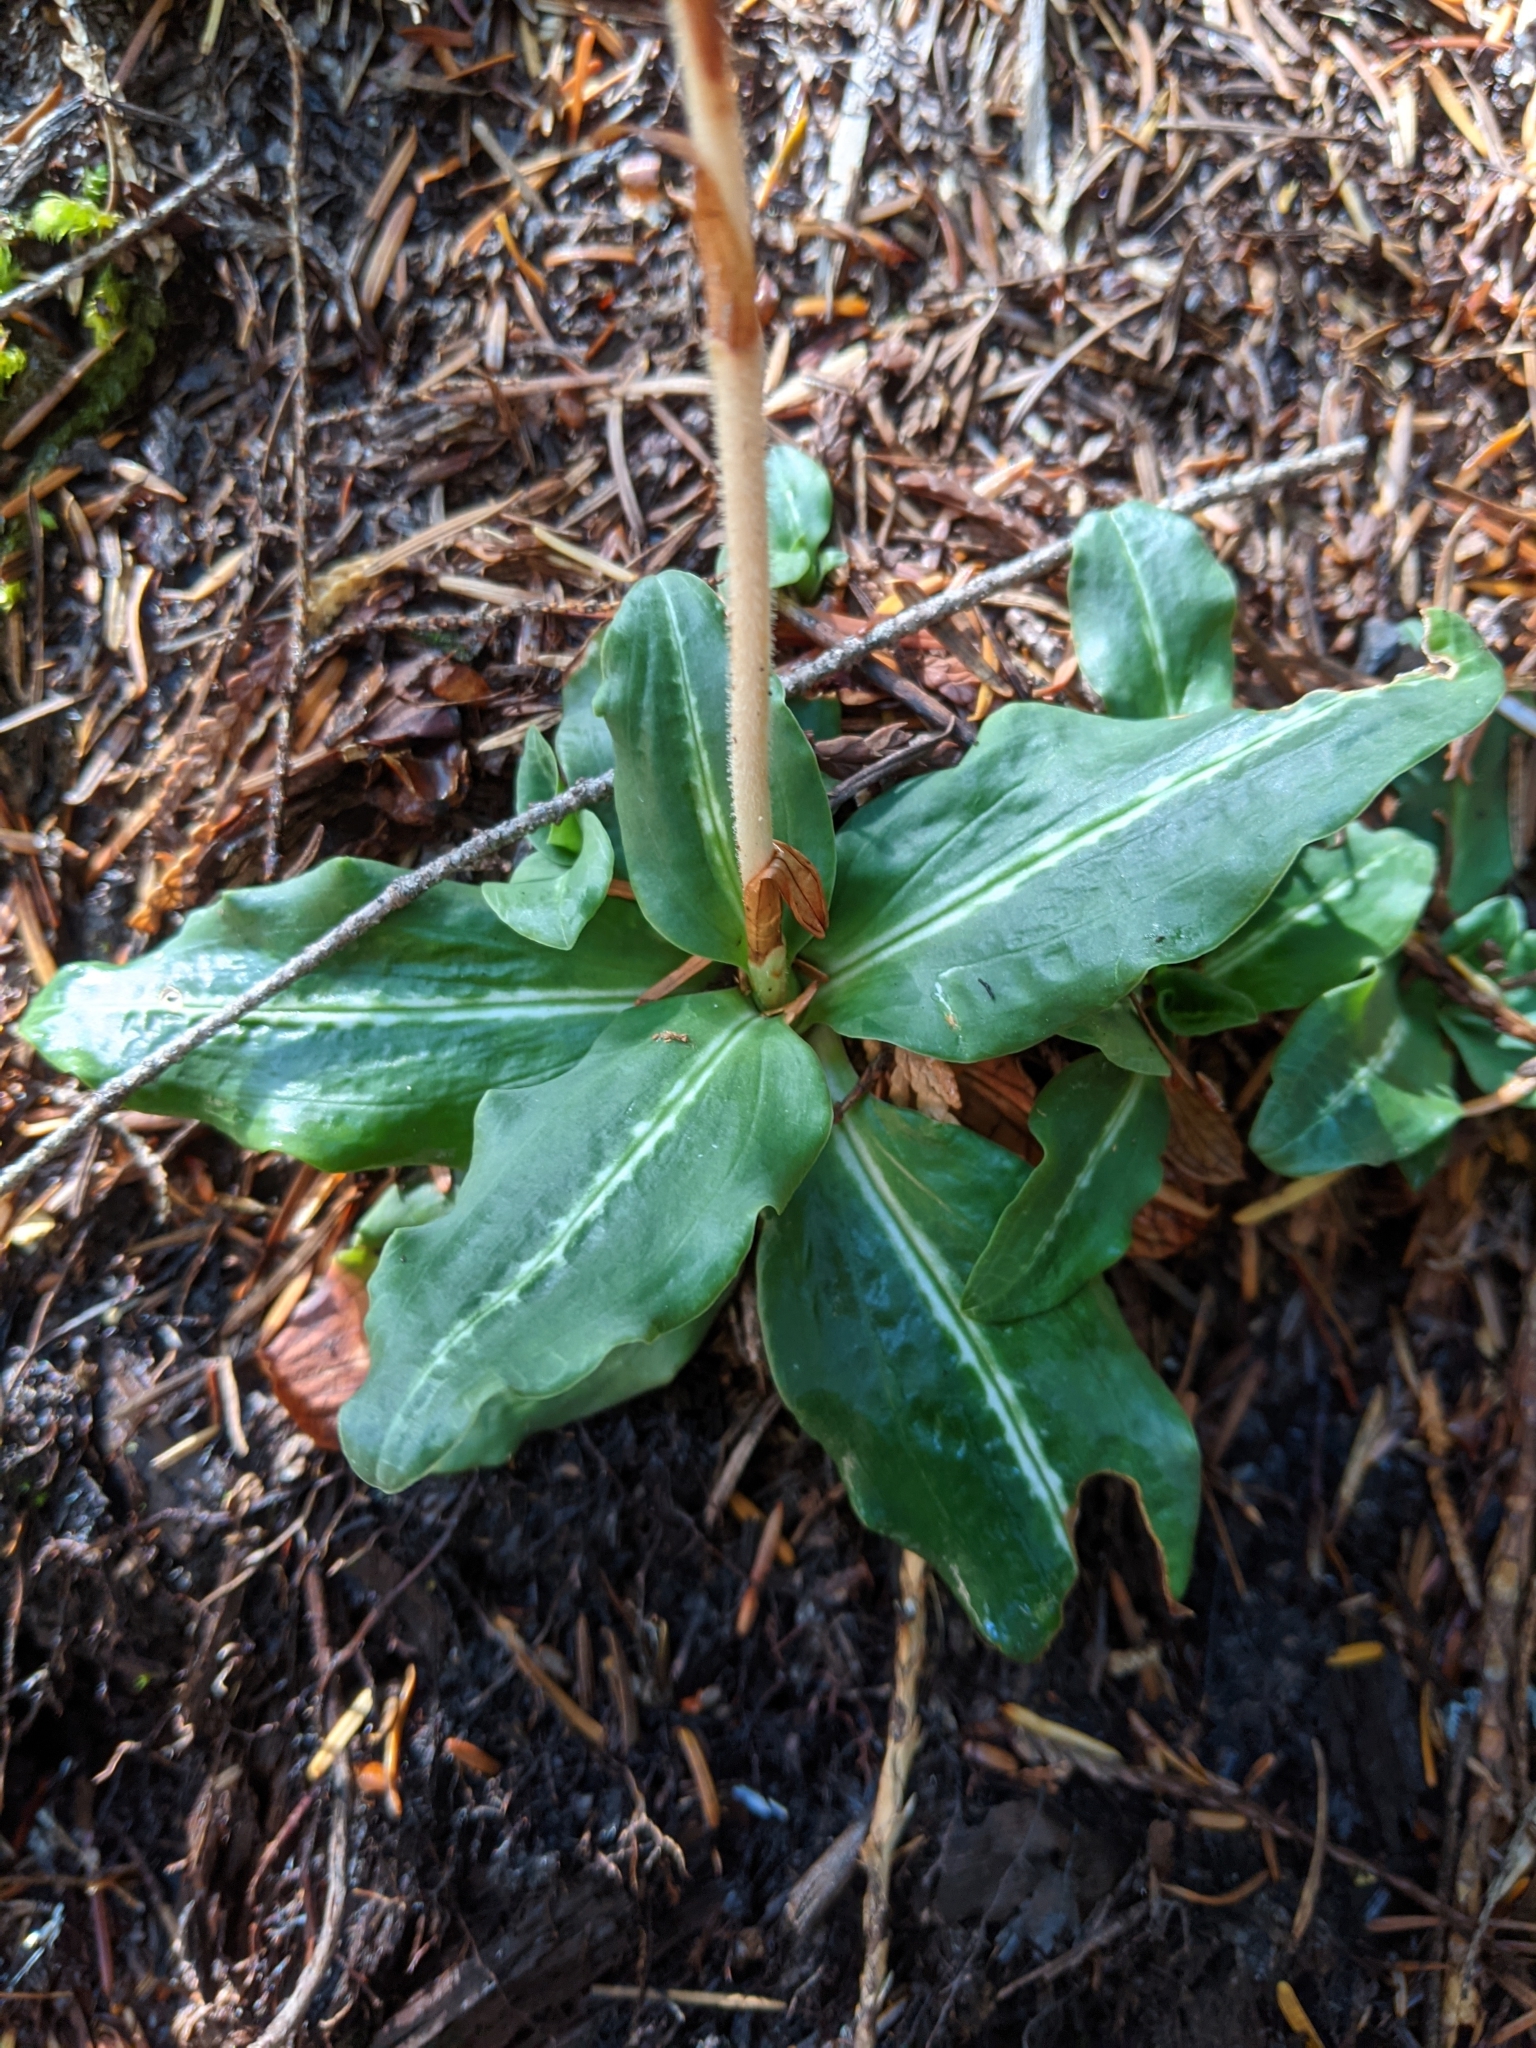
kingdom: Plantae
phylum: Tracheophyta
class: Liliopsida
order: Asparagales
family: Orchidaceae
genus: Goodyera
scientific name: Goodyera oblongifolia
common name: Giant rattlesnake-plantain
